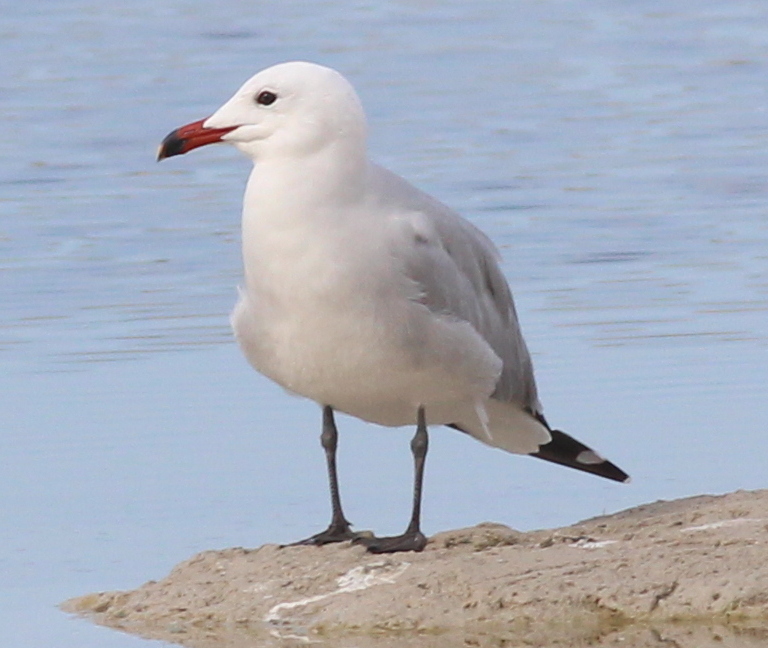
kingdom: Animalia
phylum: Chordata
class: Aves
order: Charadriiformes
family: Laridae
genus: Ichthyaetus
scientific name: Ichthyaetus audouinii
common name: Audouin's gull
